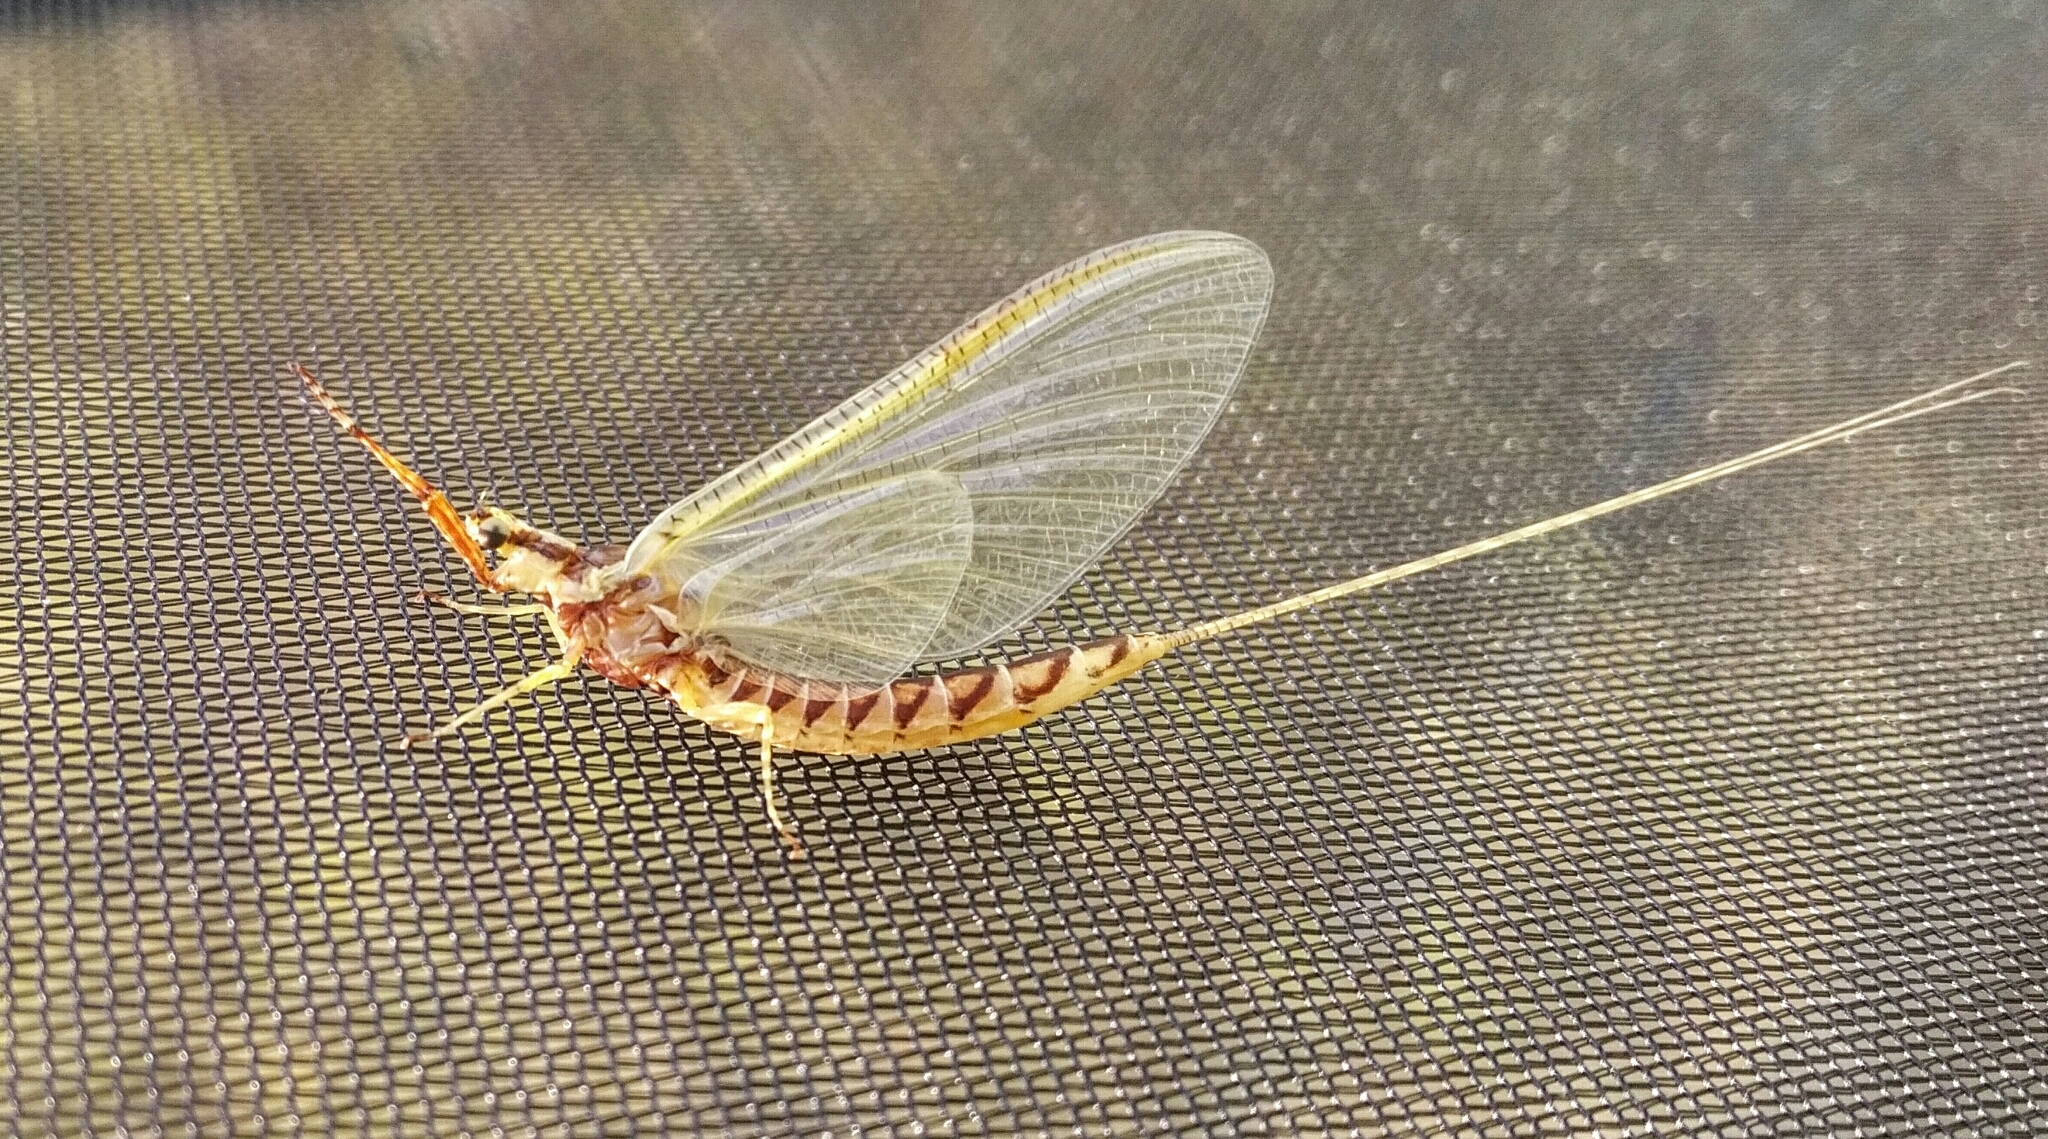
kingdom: Animalia
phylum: Arthropoda
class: Insecta
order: Ephemeroptera
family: Ephemeridae
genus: Hexagenia
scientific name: Hexagenia limbata
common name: Giant mayfly
